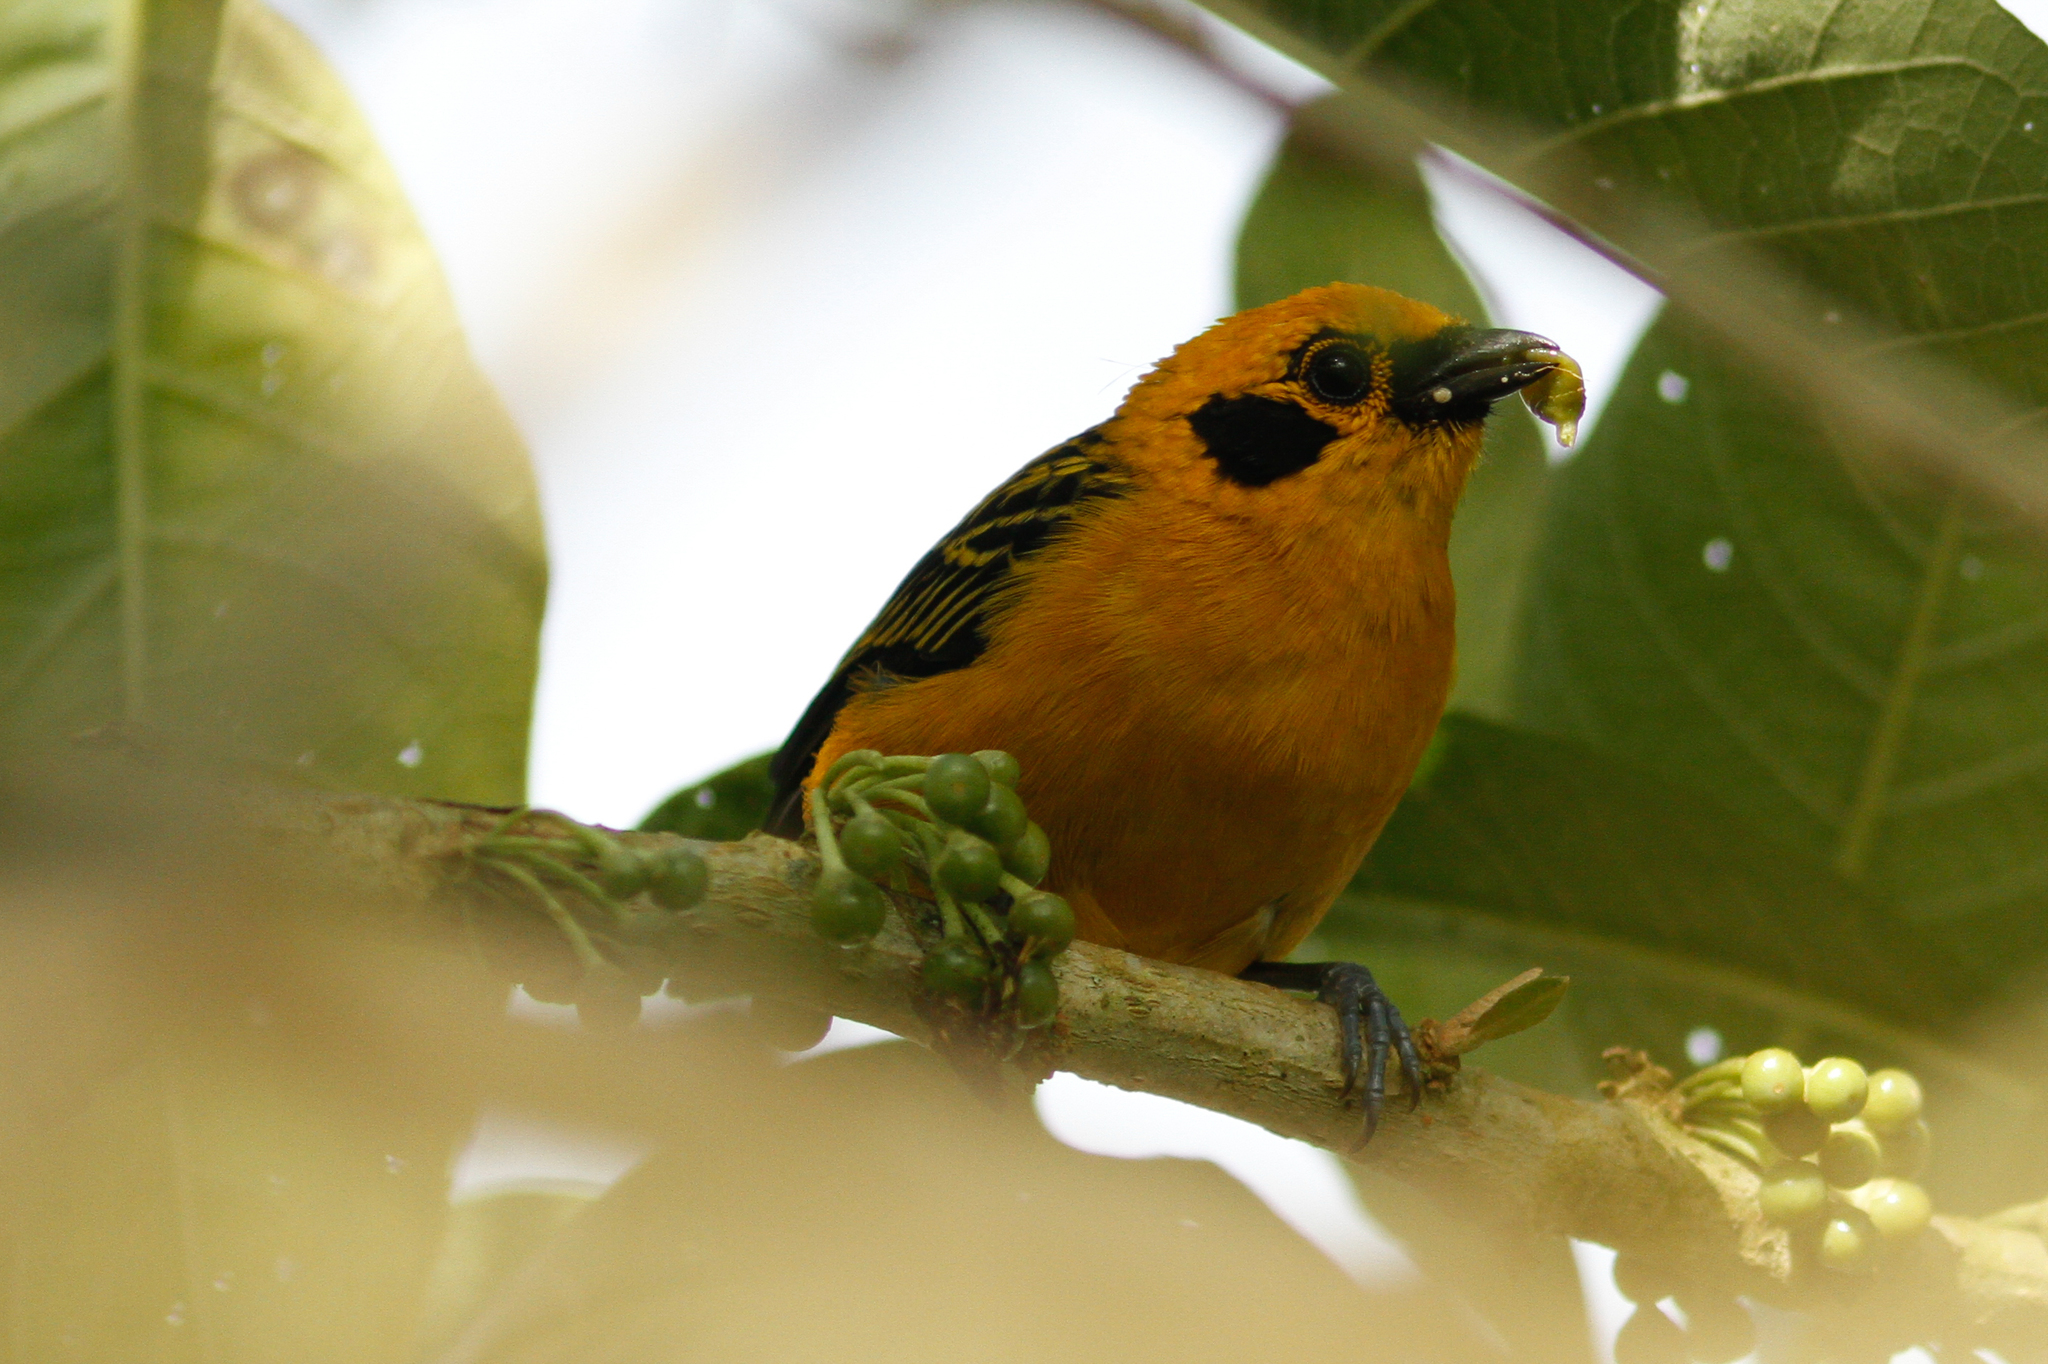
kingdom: Animalia
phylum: Chordata
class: Aves
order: Passeriformes
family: Thraupidae
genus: Tangara
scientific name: Tangara arthus
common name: Golden tanager
